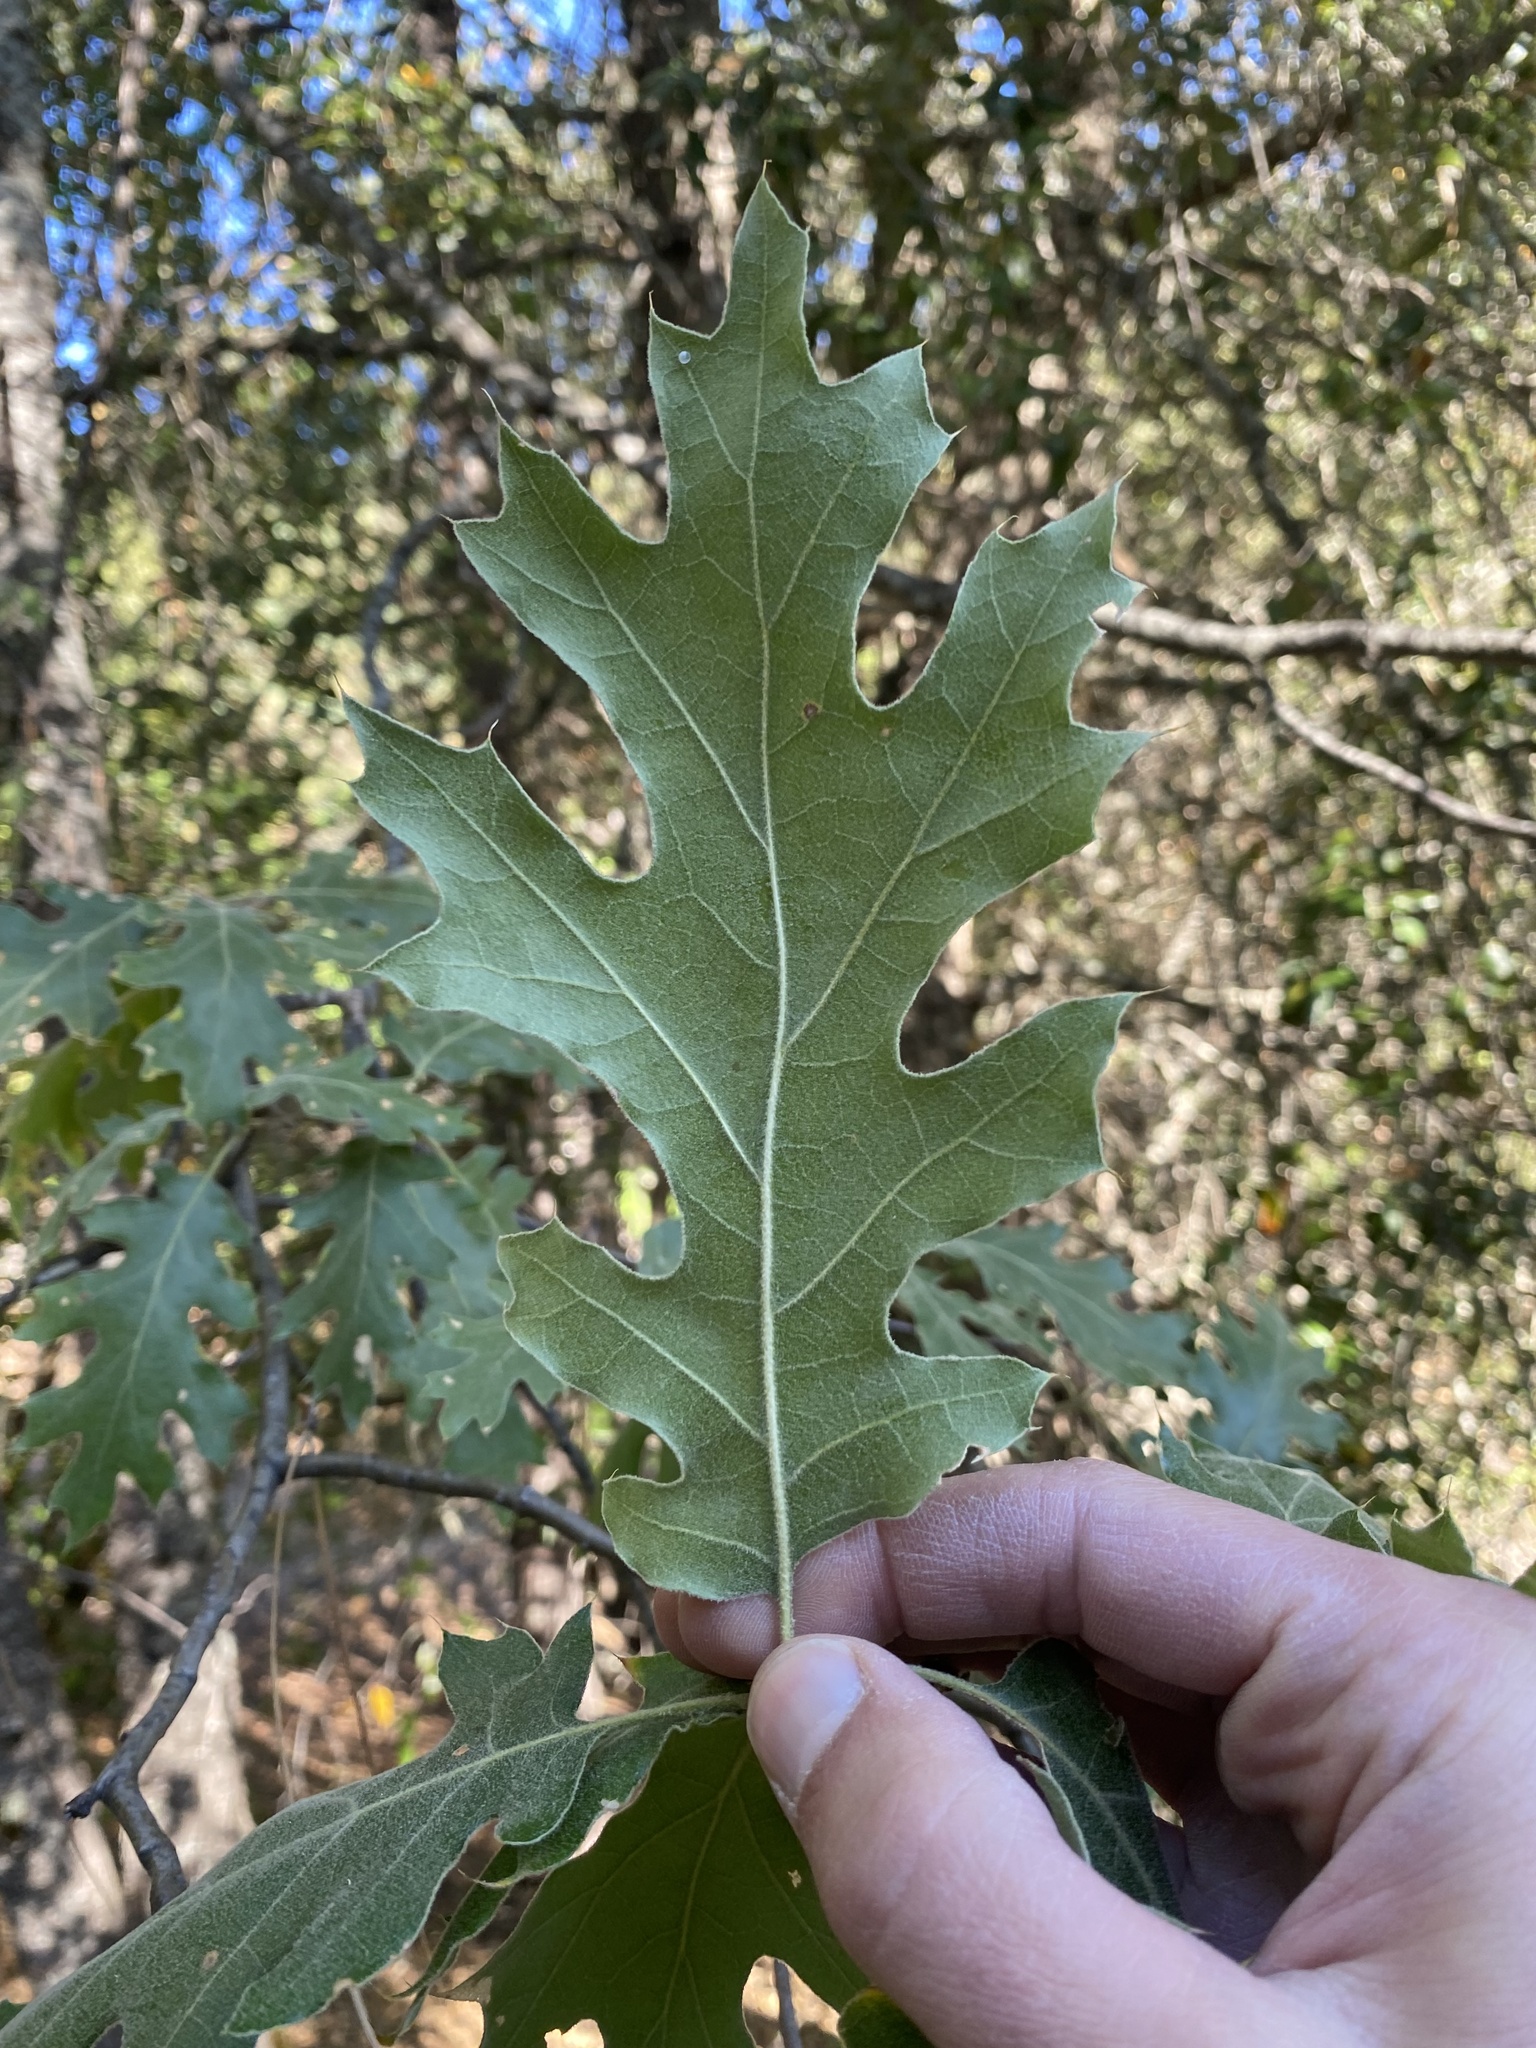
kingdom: Plantae
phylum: Tracheophyta
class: Magnoliopsida
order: Fagales
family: Fagaceae
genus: Quercus
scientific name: Quercus kelloggii
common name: California black oak
